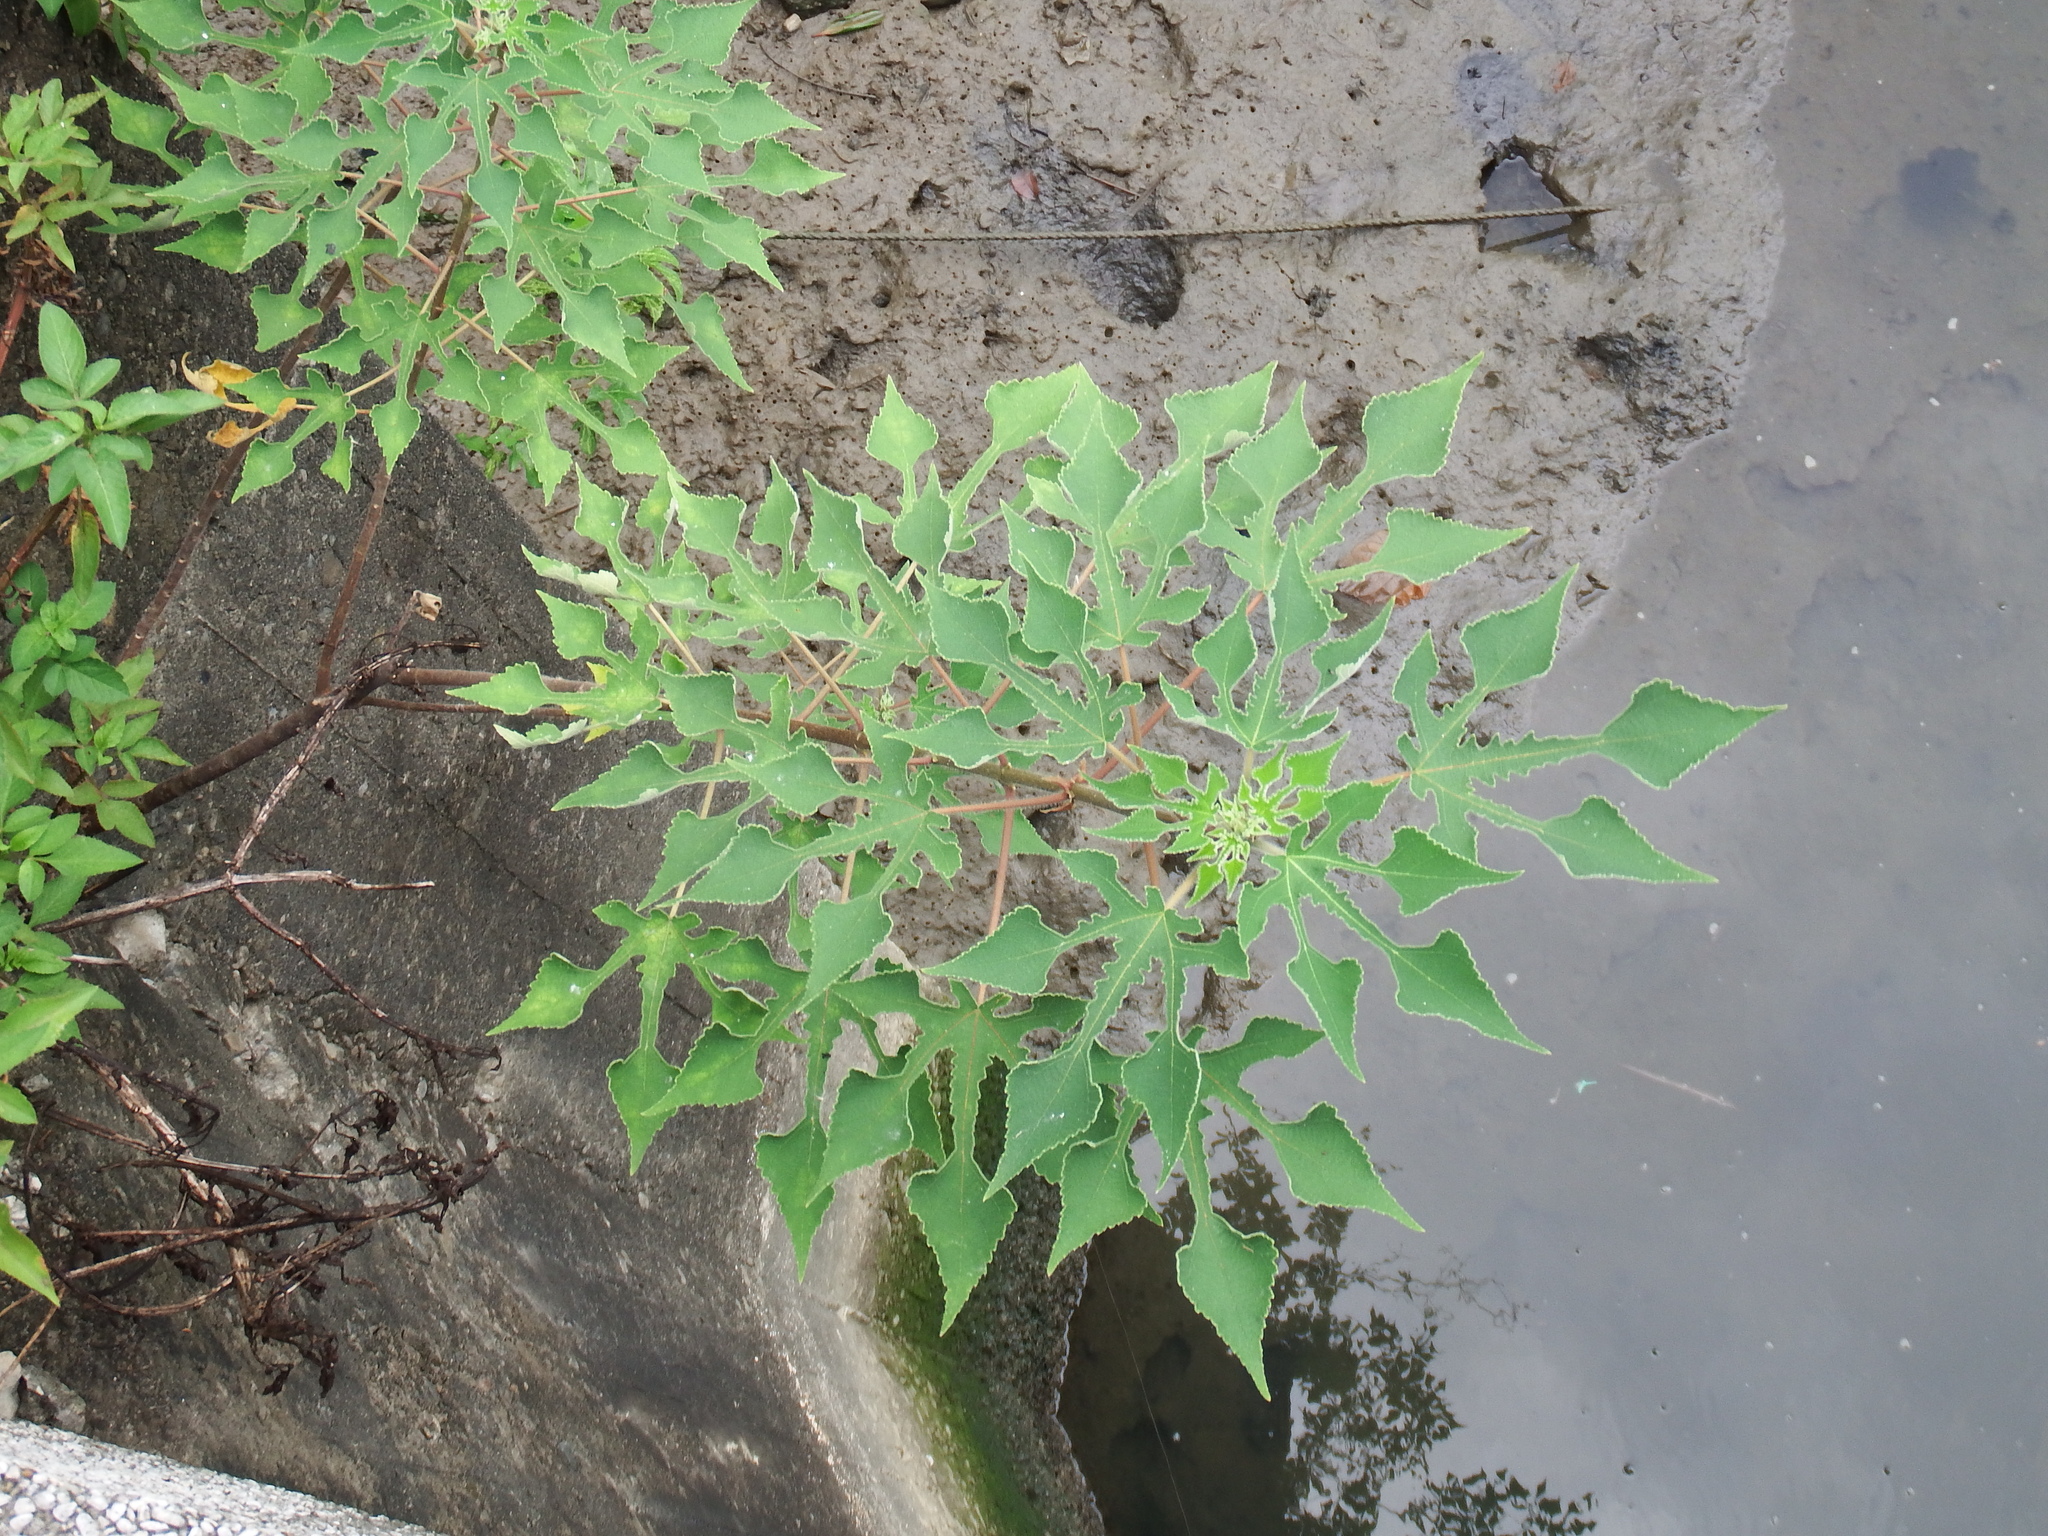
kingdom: Plantae
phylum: Tracheophyta
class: Magnoliopsida
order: Rosales
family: Moraceae
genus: Broussonetia
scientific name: Broussonetia papyrifera
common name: Paper mulberry
